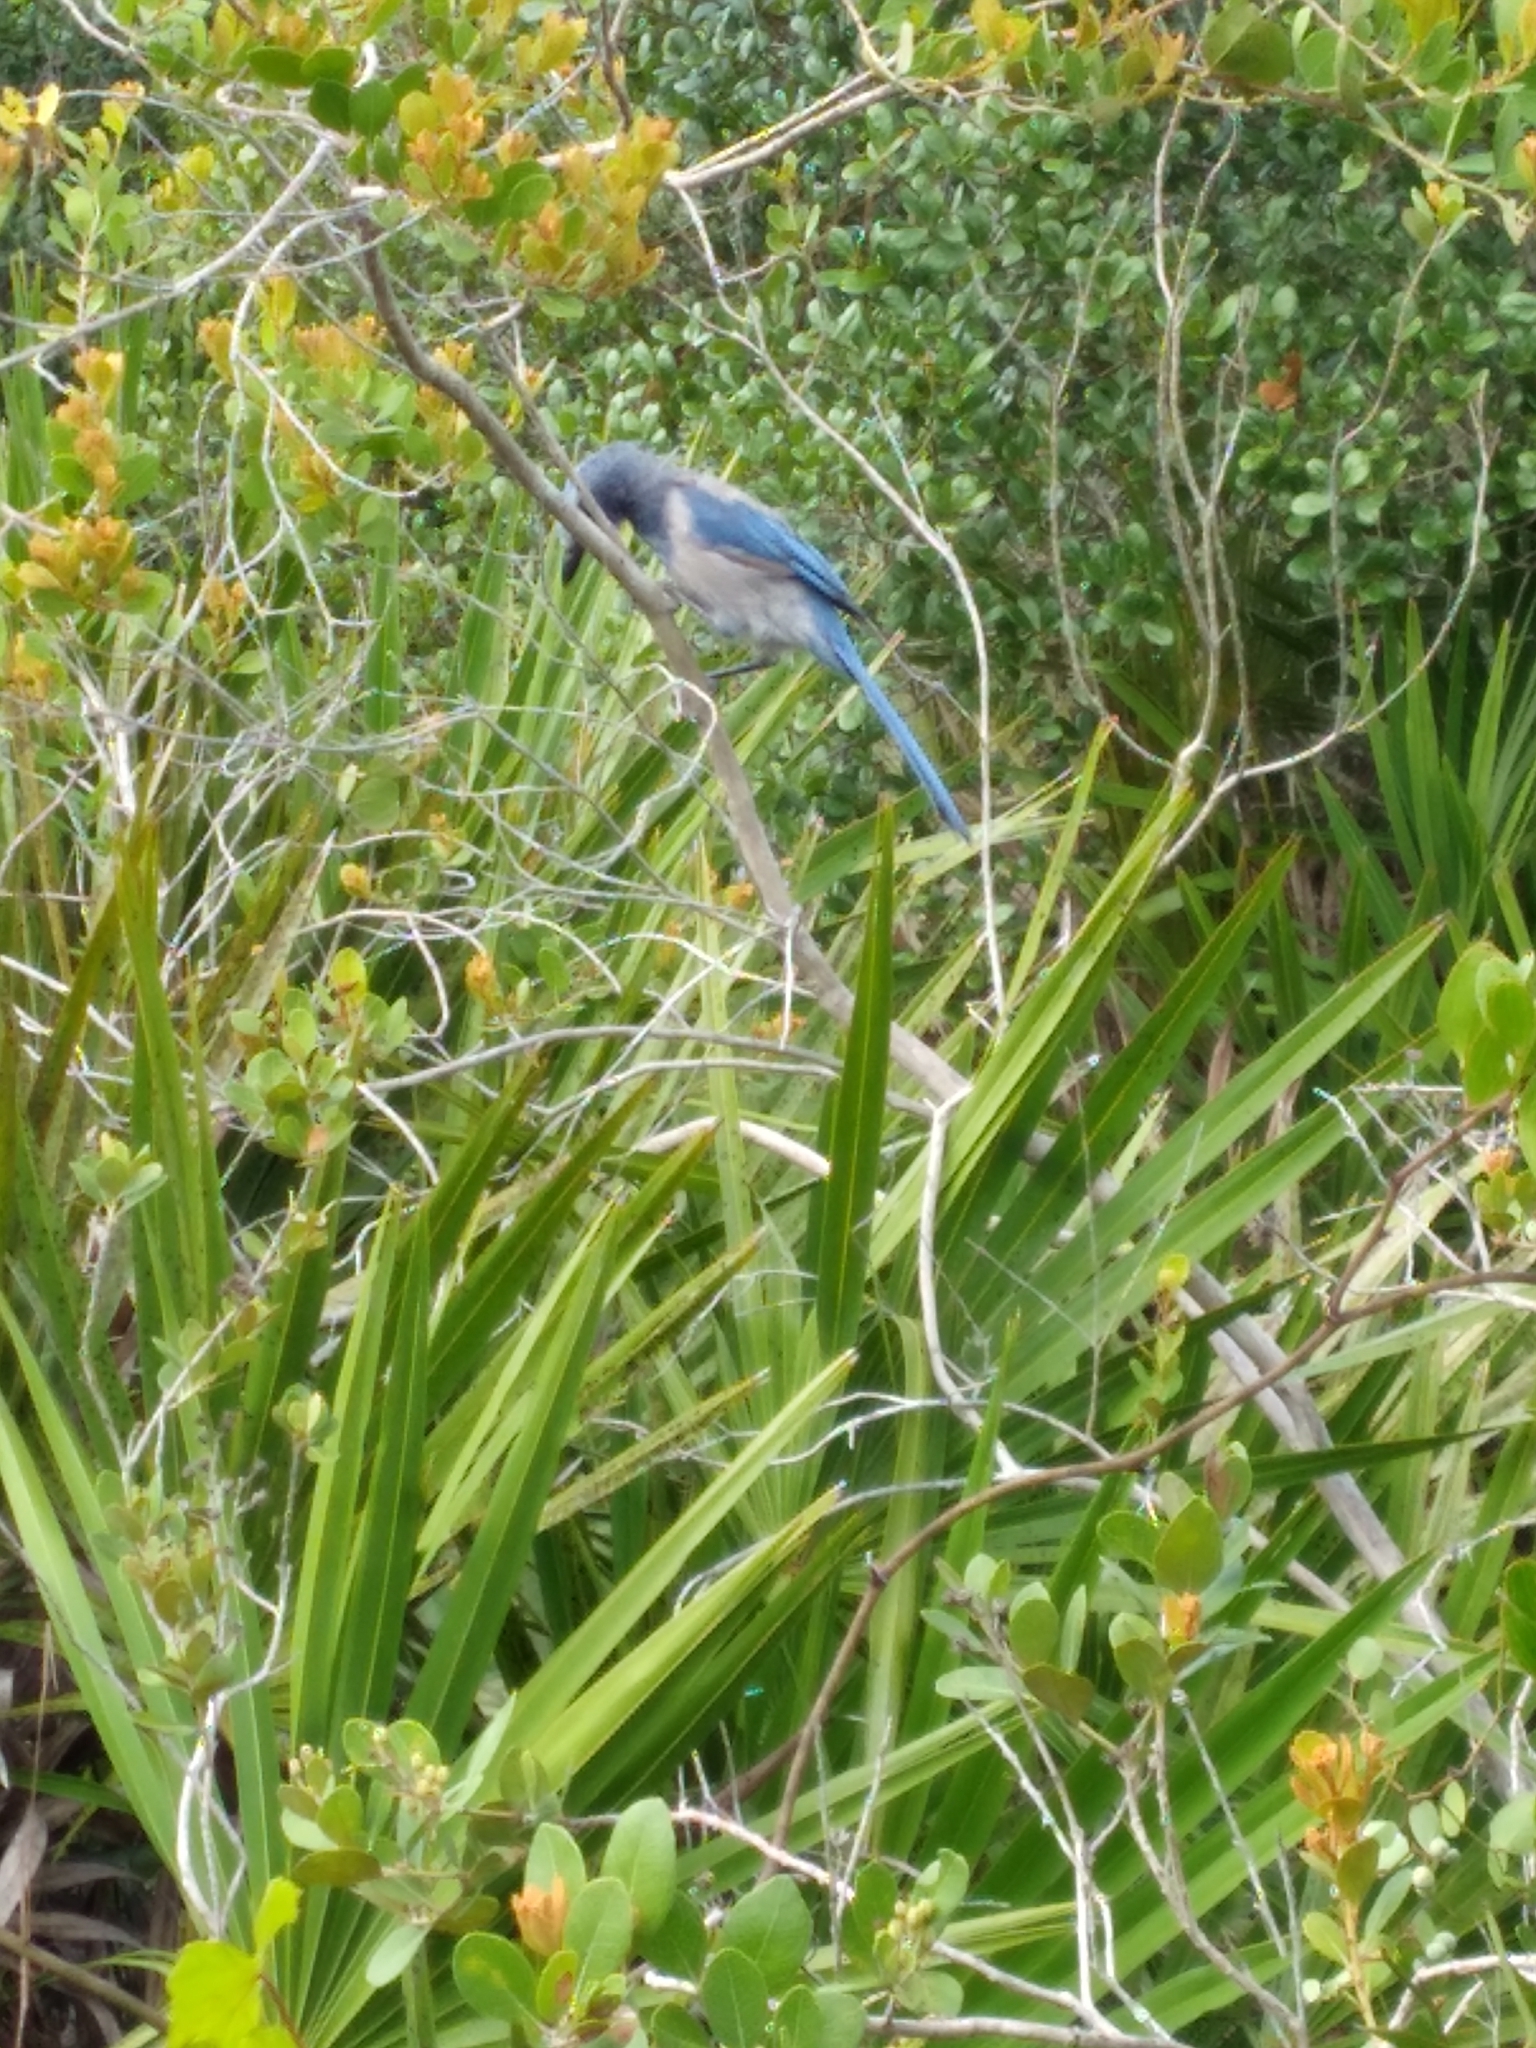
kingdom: Animalia
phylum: Chordata
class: Aves
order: Passeriformes
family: Corvidae
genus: Aphelocoma
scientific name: Aphelocoma coerulescens
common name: Florida scrub jay
